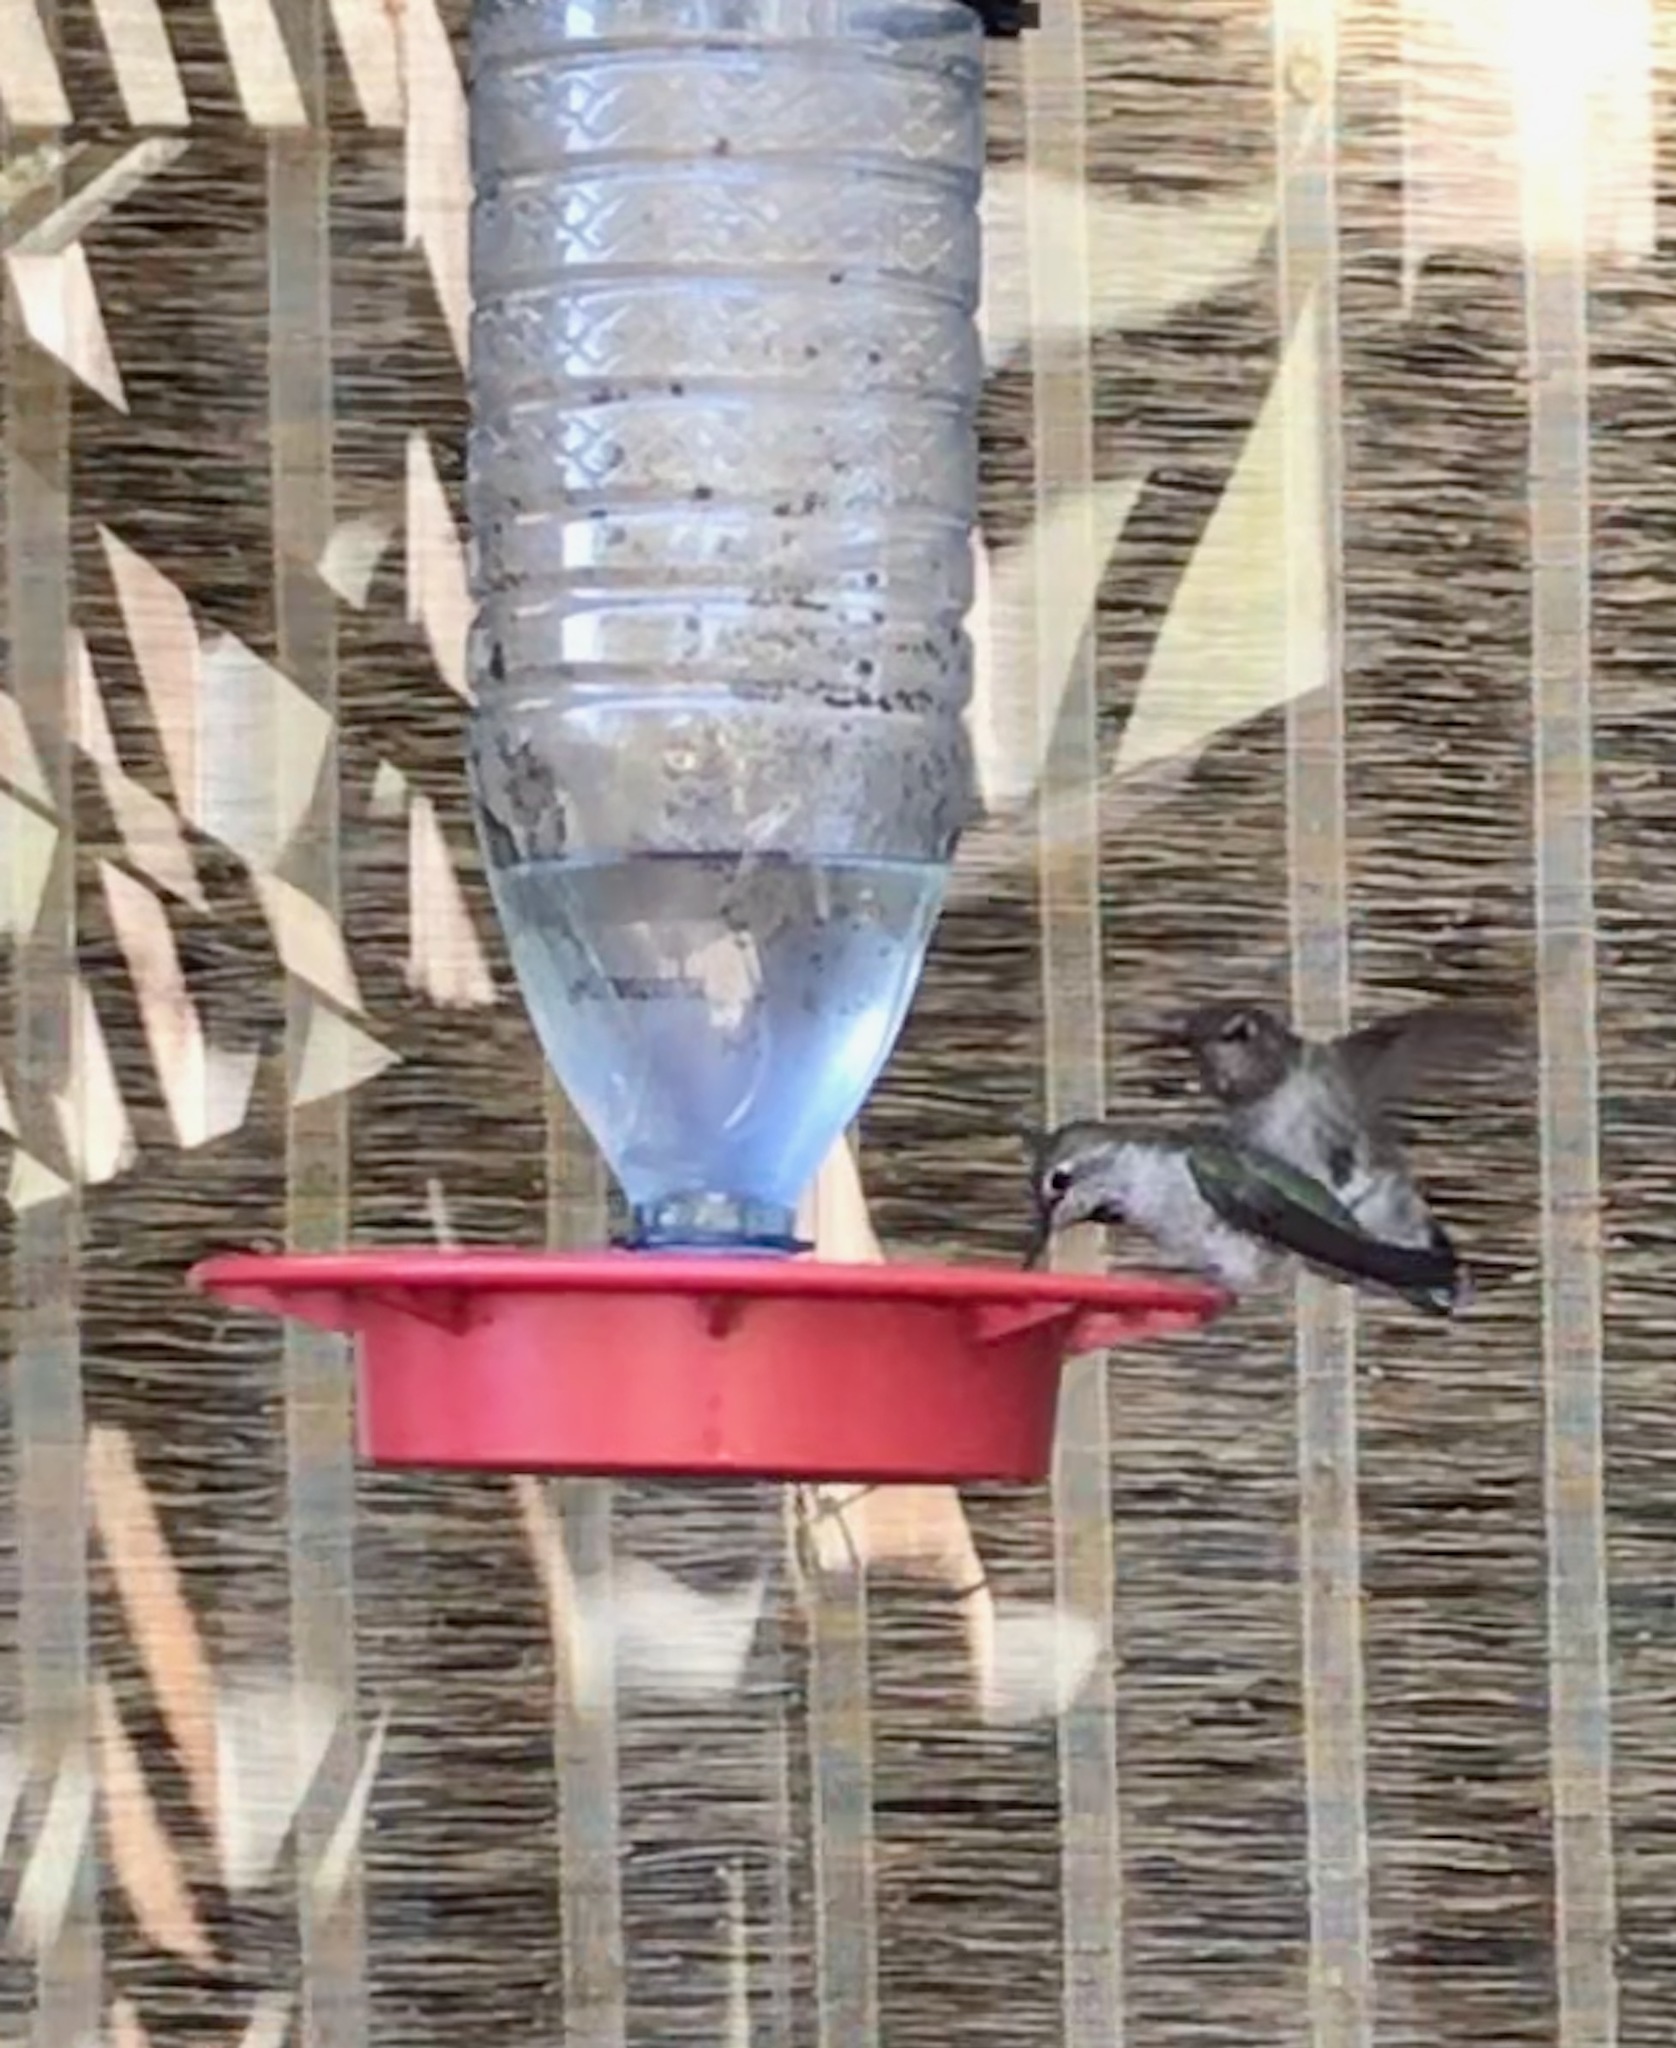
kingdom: Animalia
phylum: Chordata
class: Aves
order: Apodiformes
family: Trochilidae
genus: Calypte
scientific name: Calypte anna
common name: Anna's hummingbird
